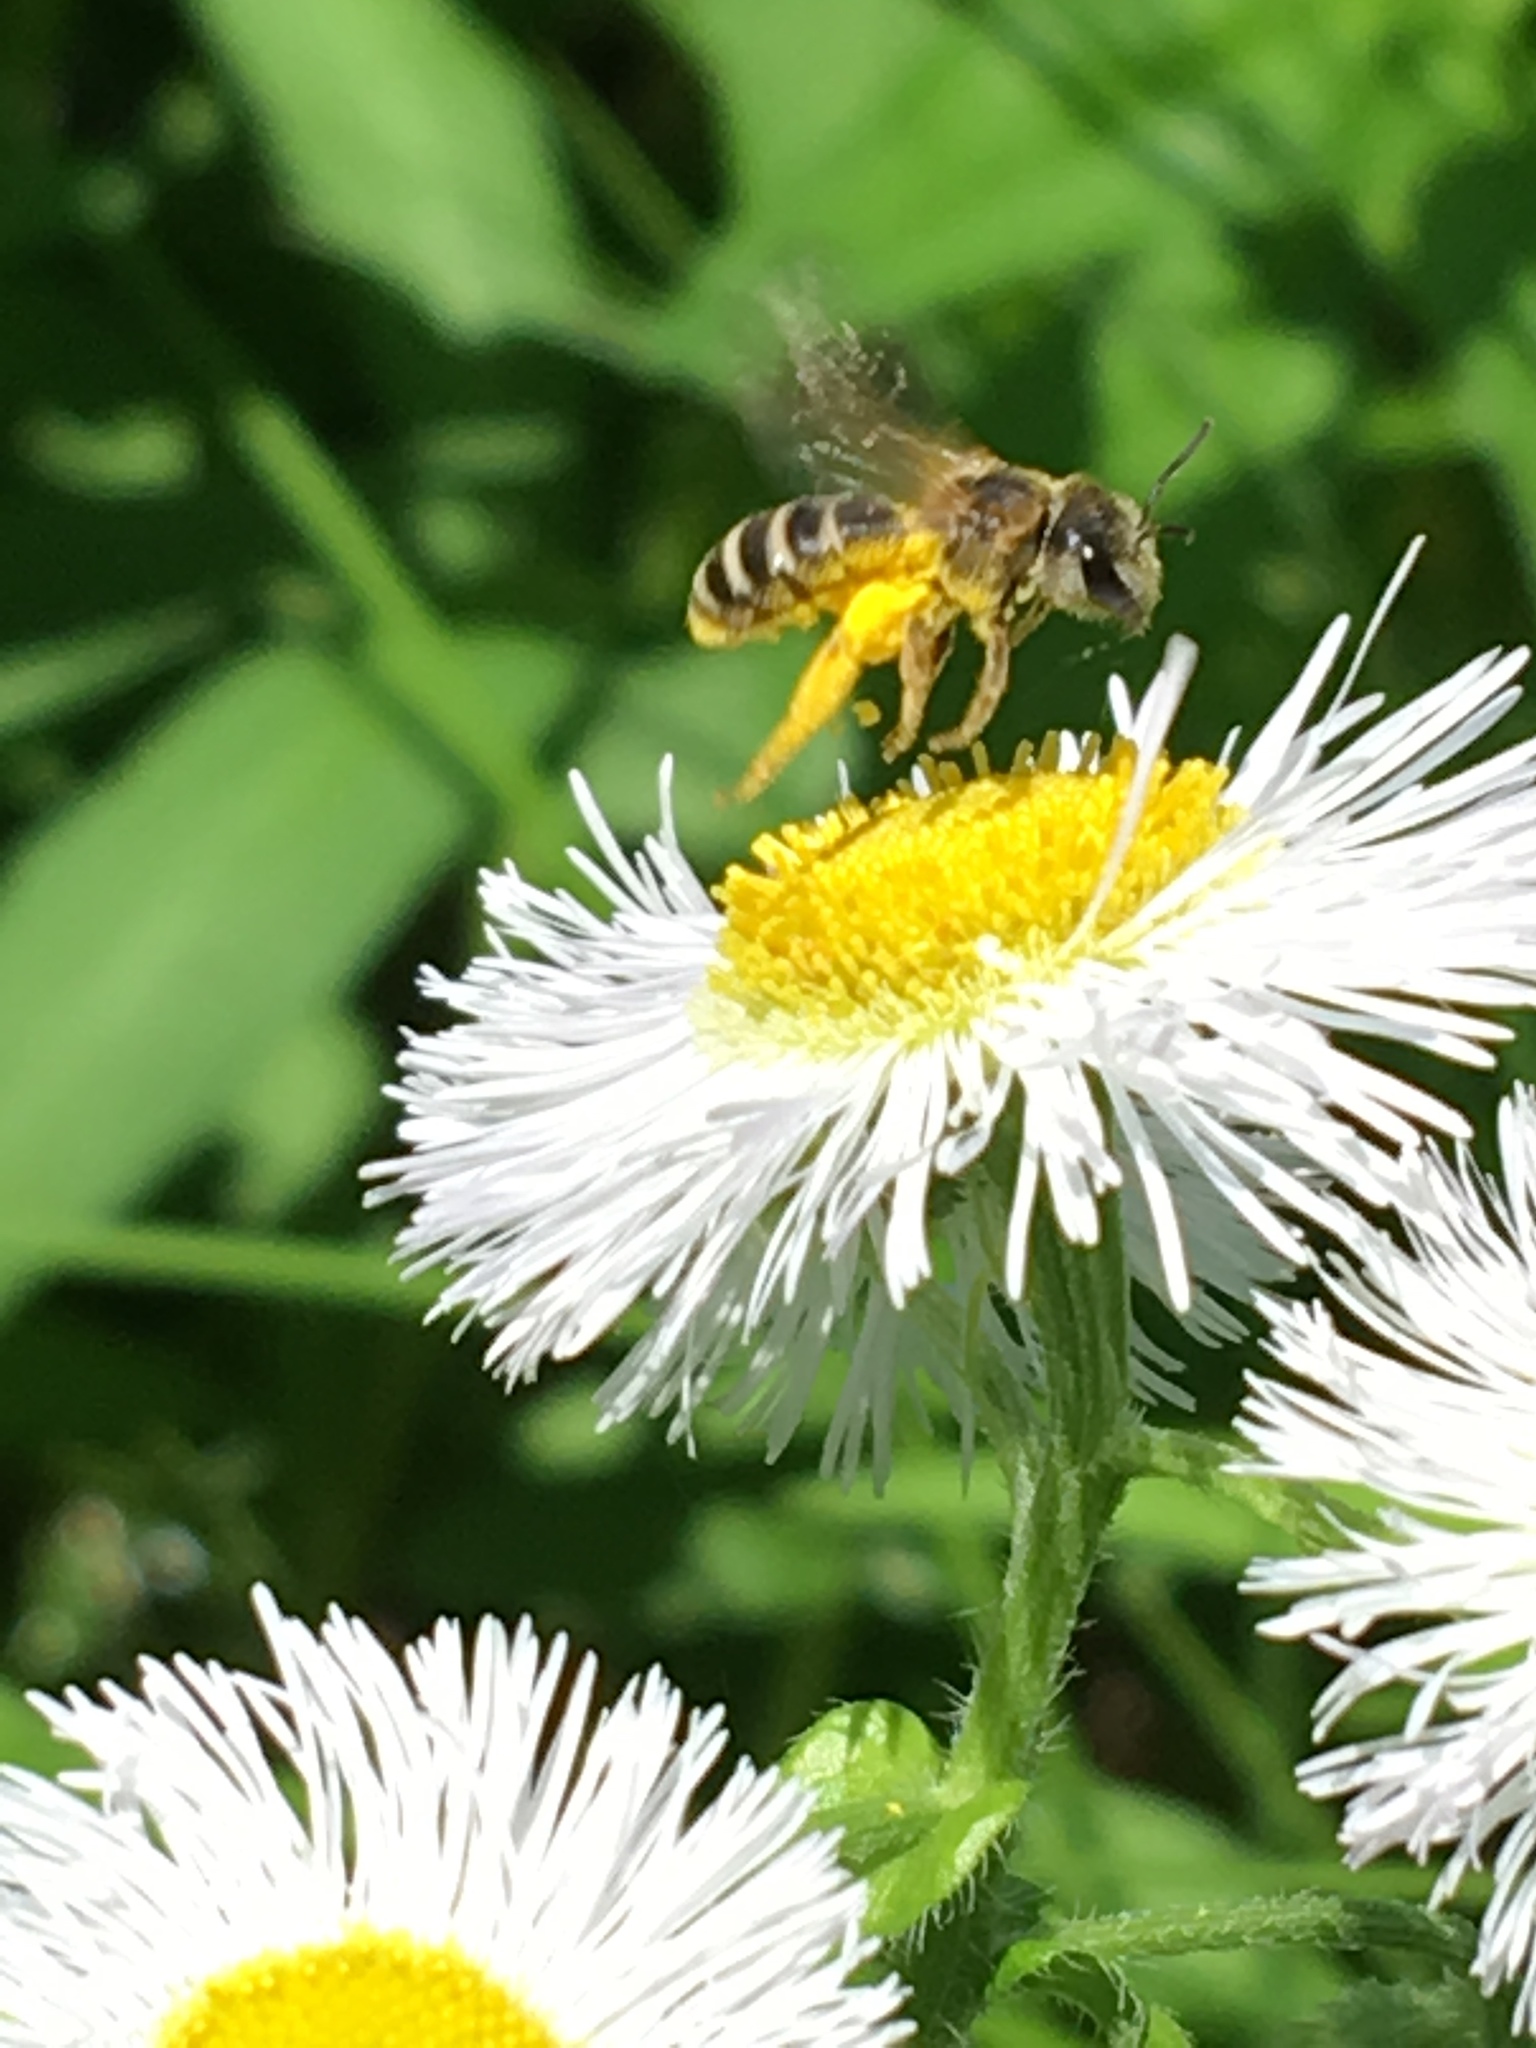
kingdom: Animalia
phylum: Arthropoda
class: Insecta
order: Hymenoptera
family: Apidae
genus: Apis
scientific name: Apis mellifera
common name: Honey bee
